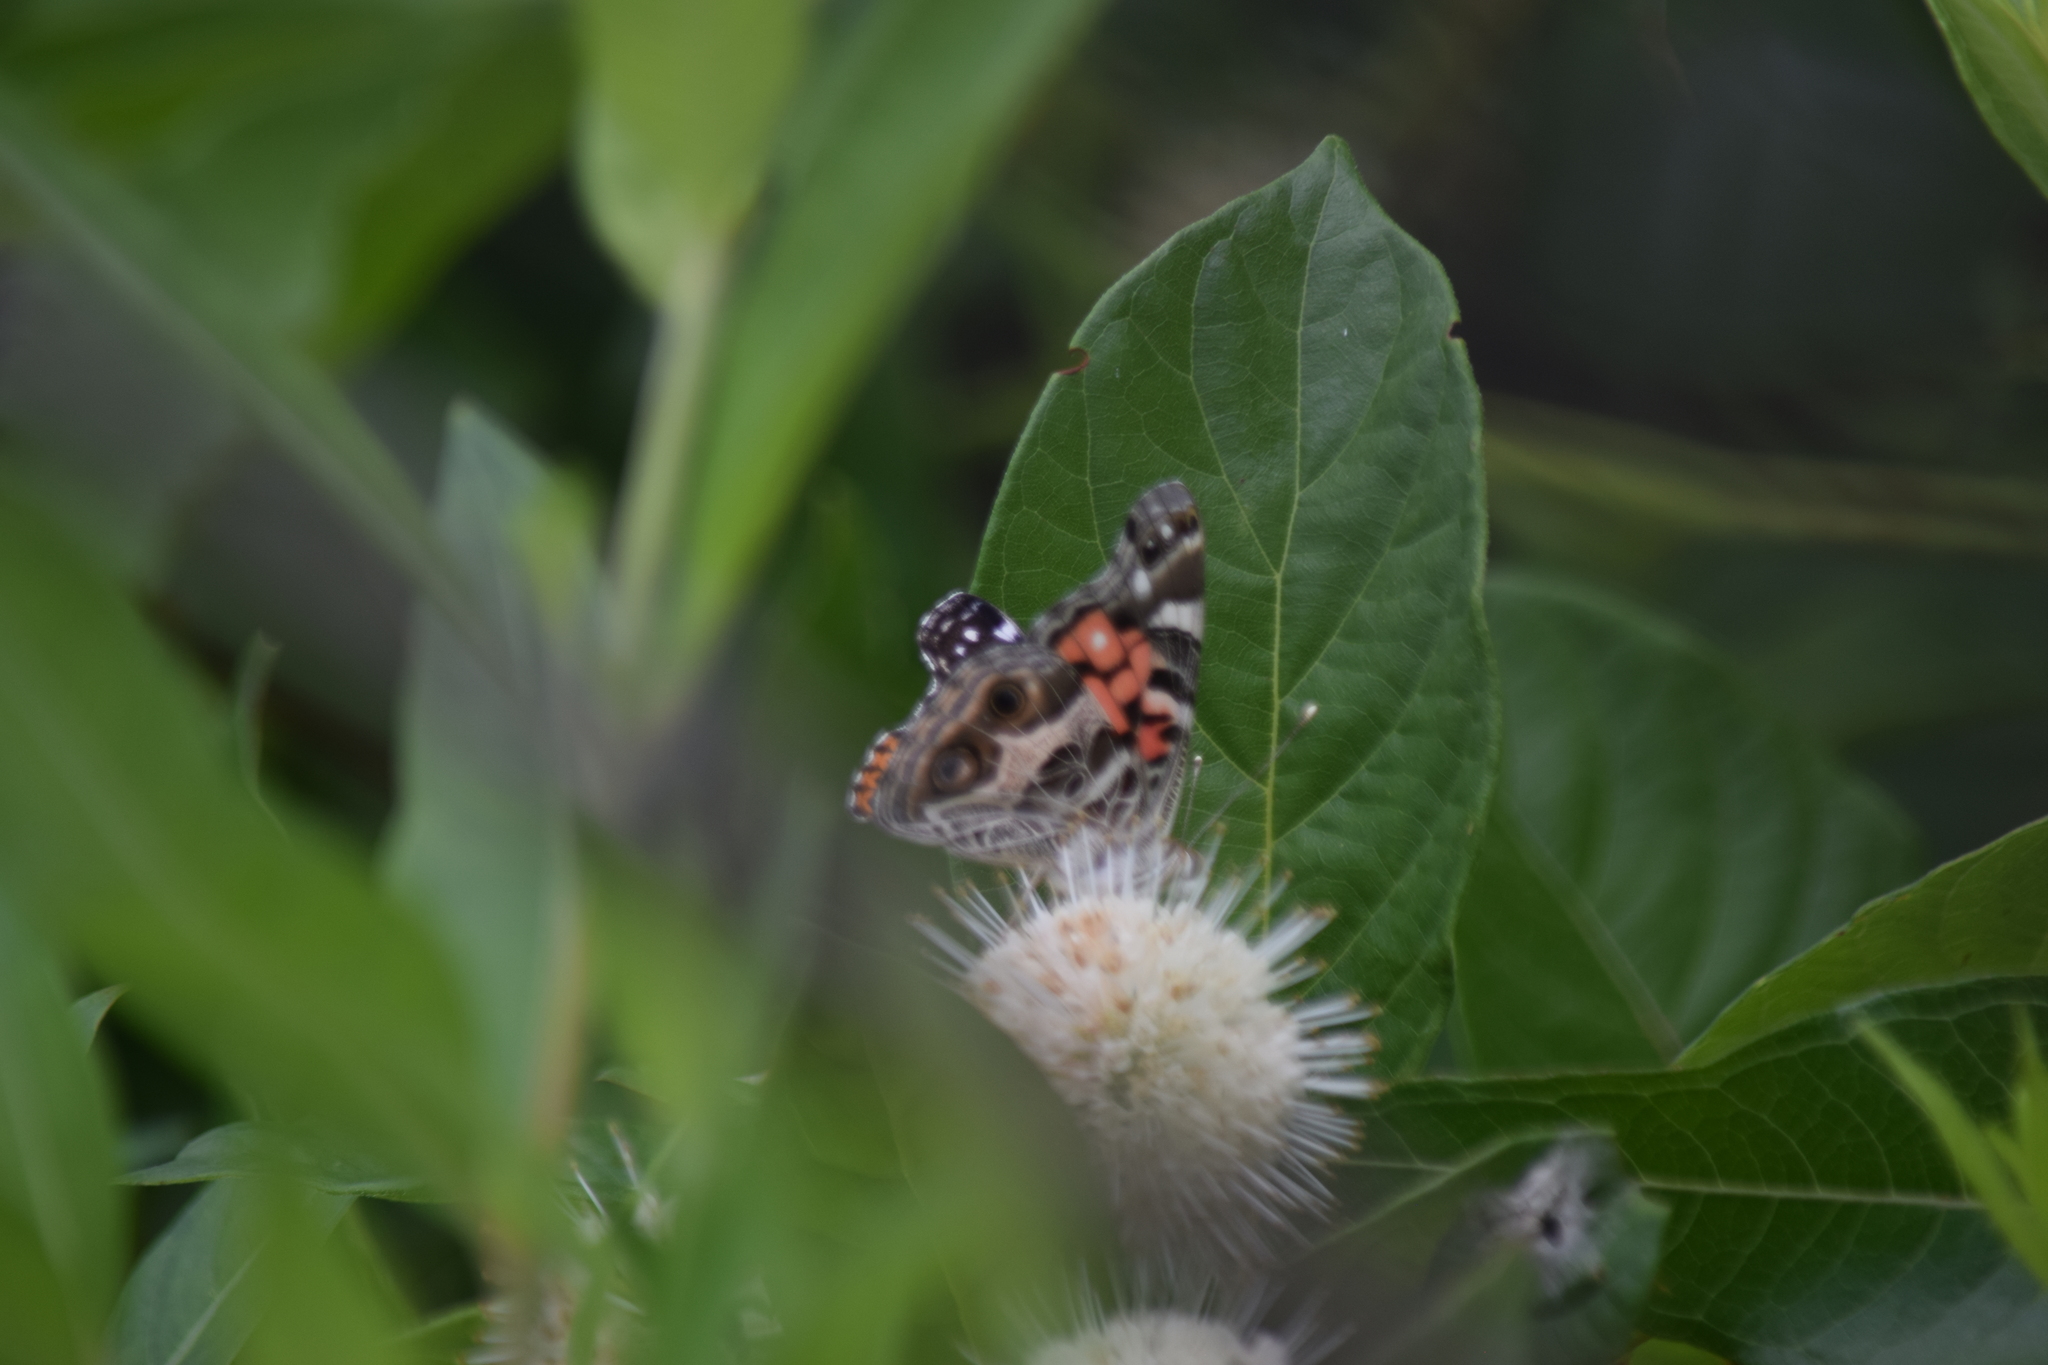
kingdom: Animalia
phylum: Arthropoda
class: Insecta
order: Lepidoptera
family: Nymphalidae
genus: Vanessa
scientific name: Vanessa virginiensis
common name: American lady
